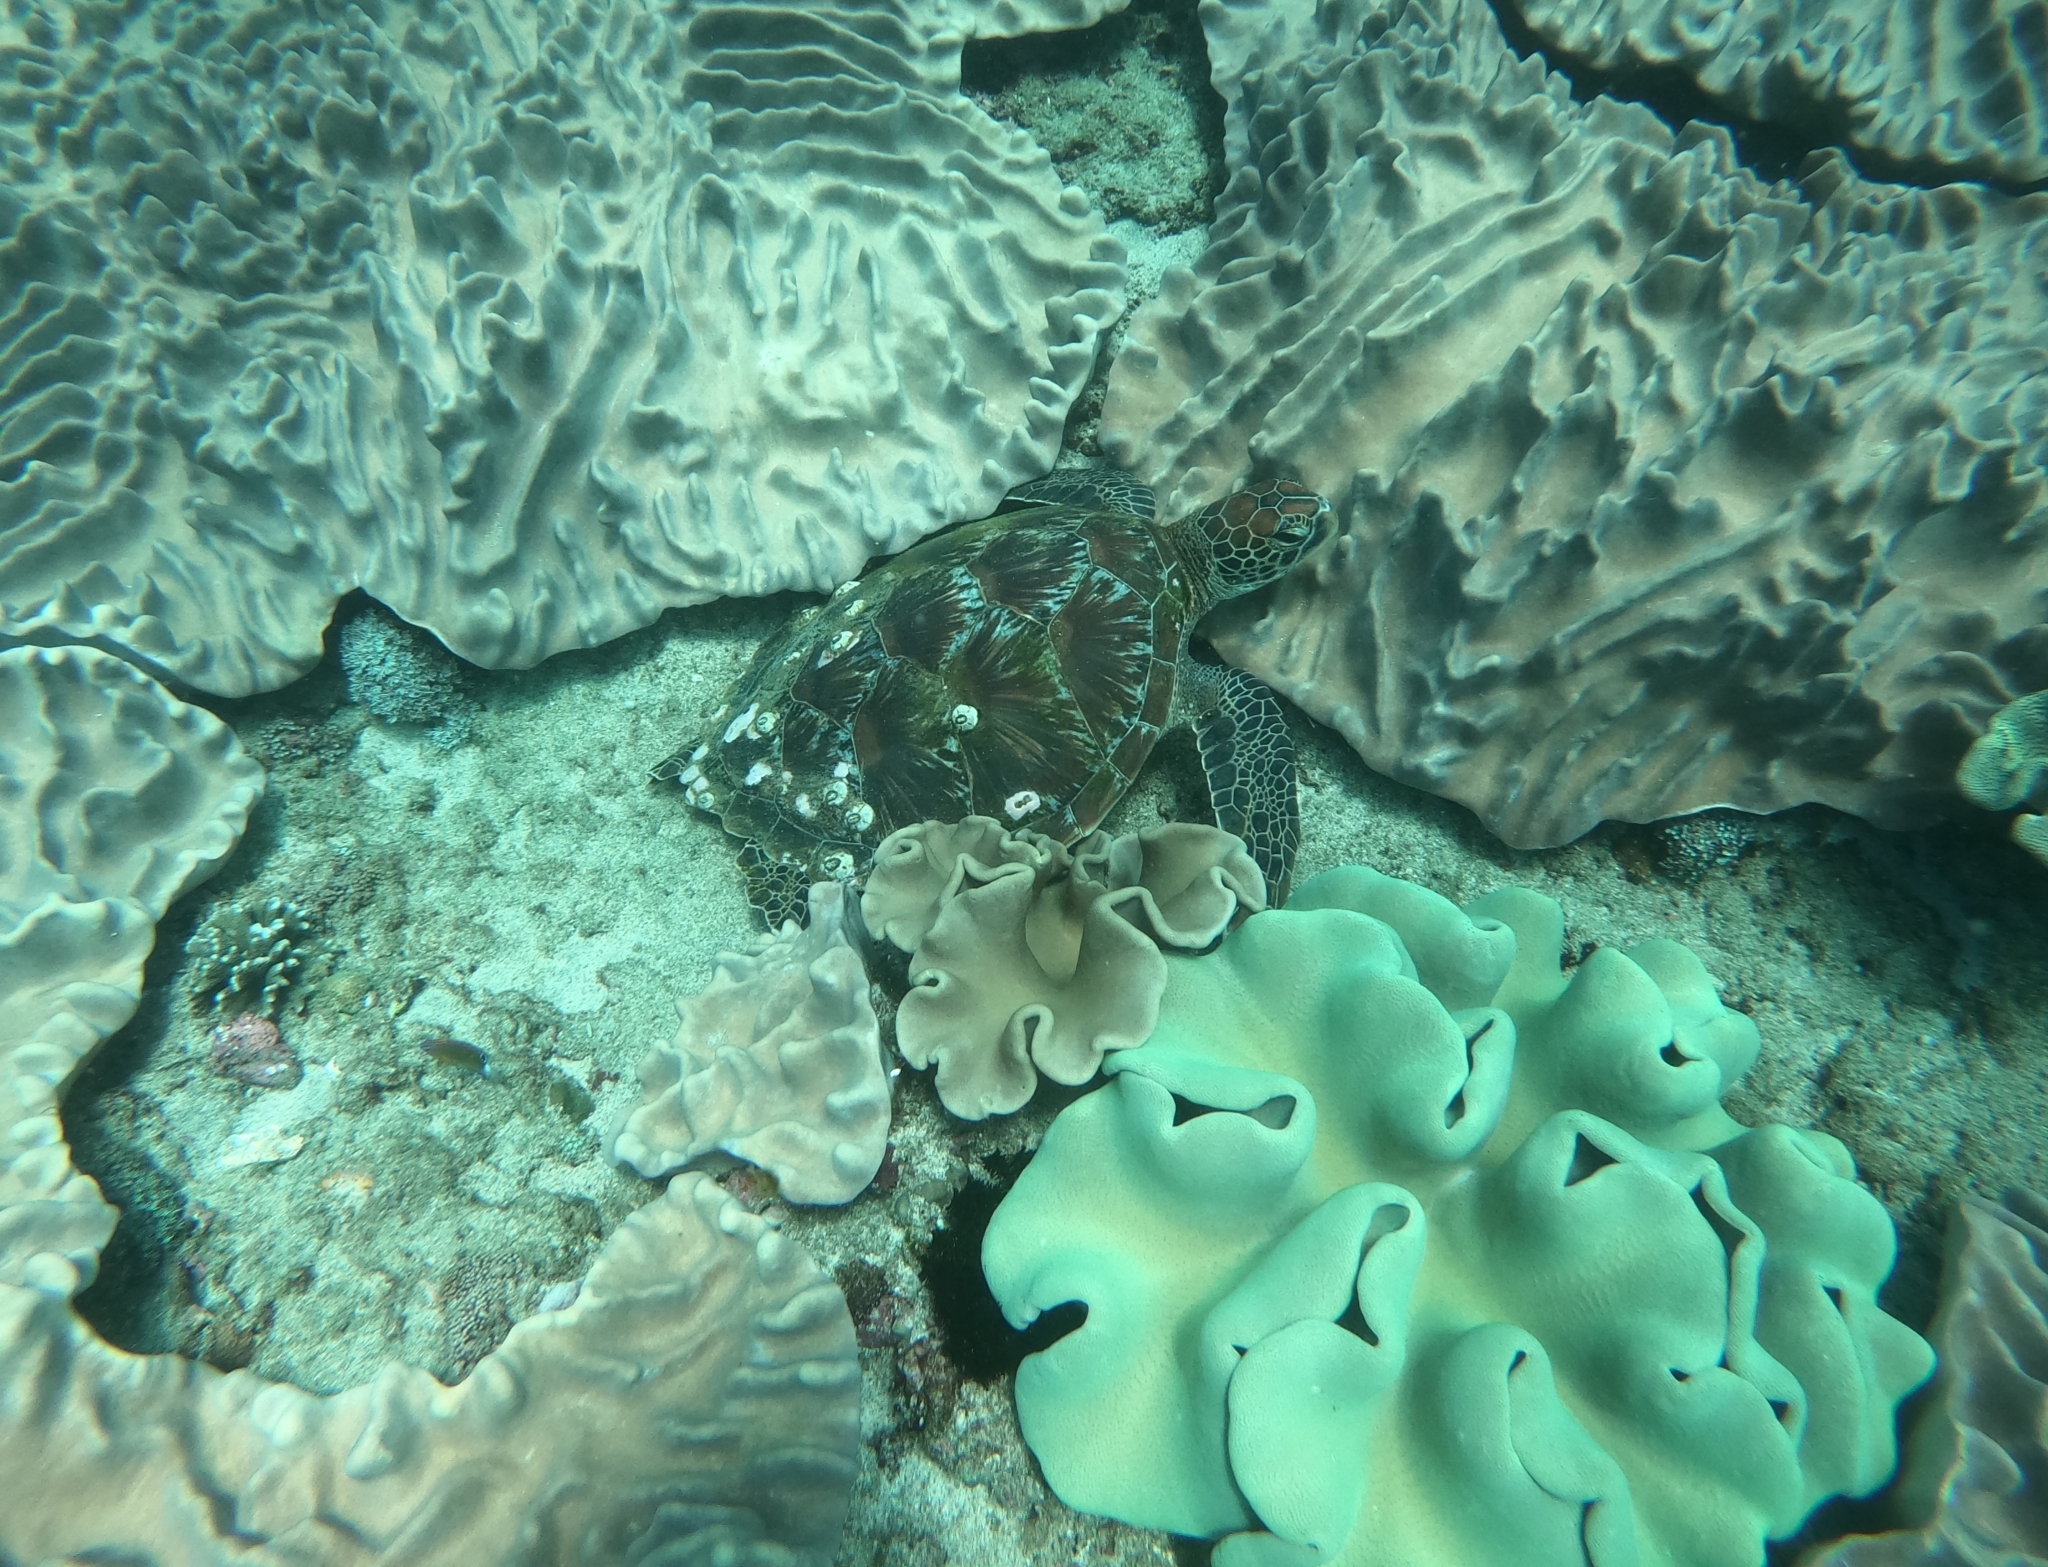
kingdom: Animalia
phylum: Chordata
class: Testudines
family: Cheloniidae
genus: Chelonia
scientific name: Chelonia mydas
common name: Green turtle
